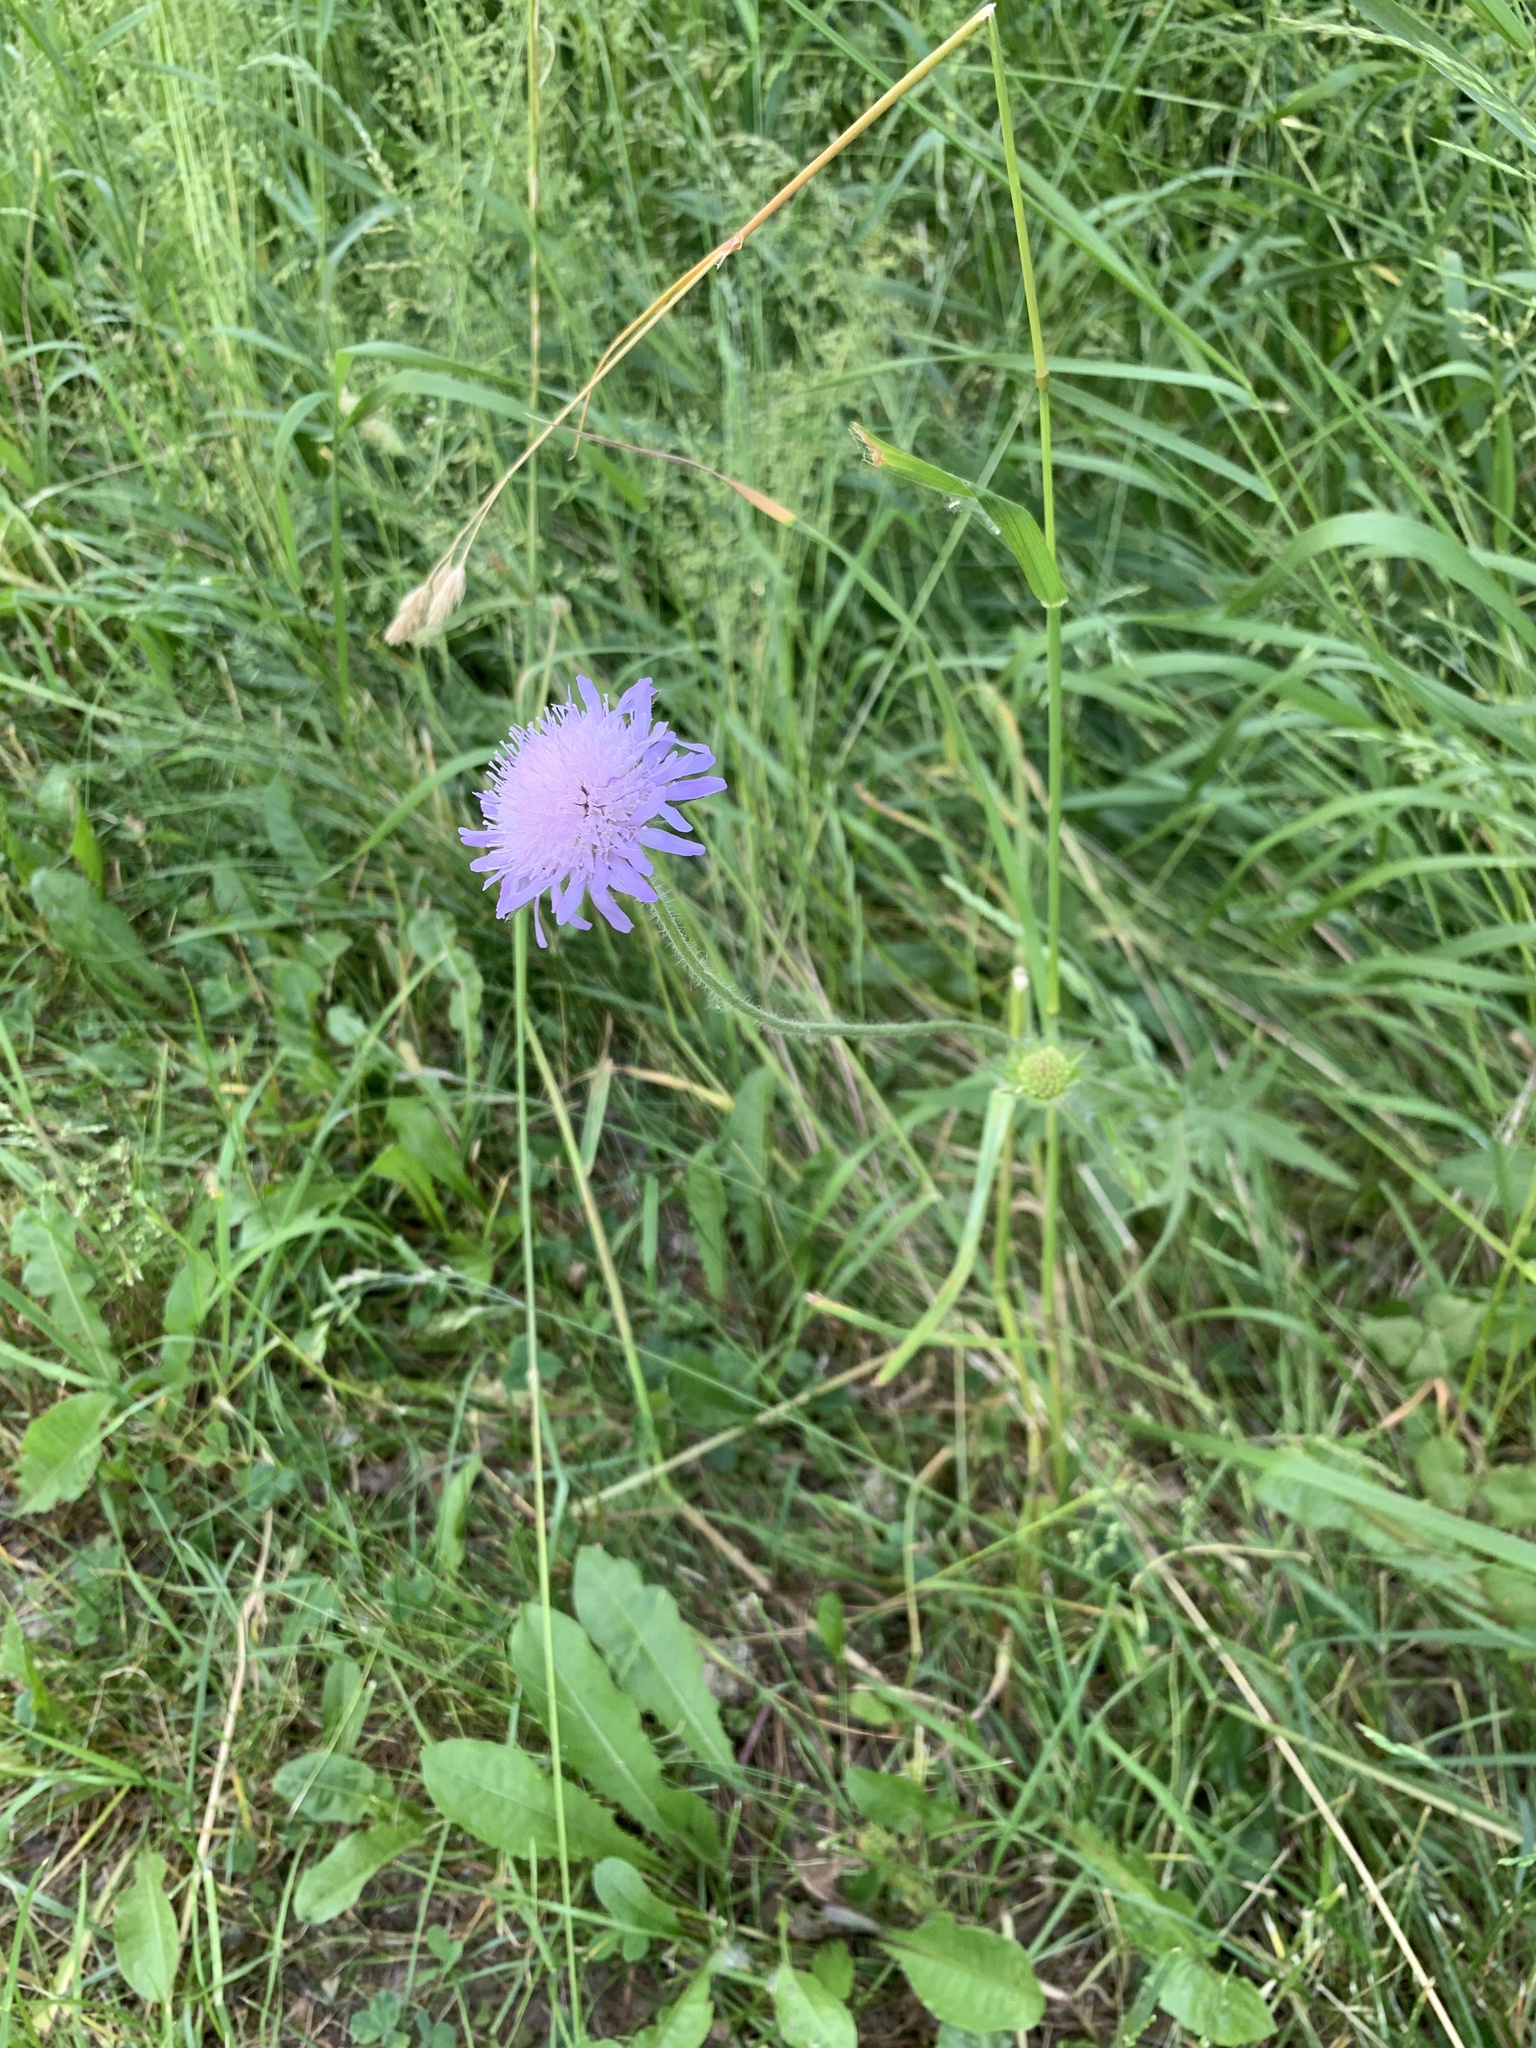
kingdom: Plantae
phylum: Tracheophyta
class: Magnoliopsida
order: Dipsacales
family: Caprifoliaceae
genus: Knautia
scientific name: Knautia arvensis
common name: Field scabiosa
